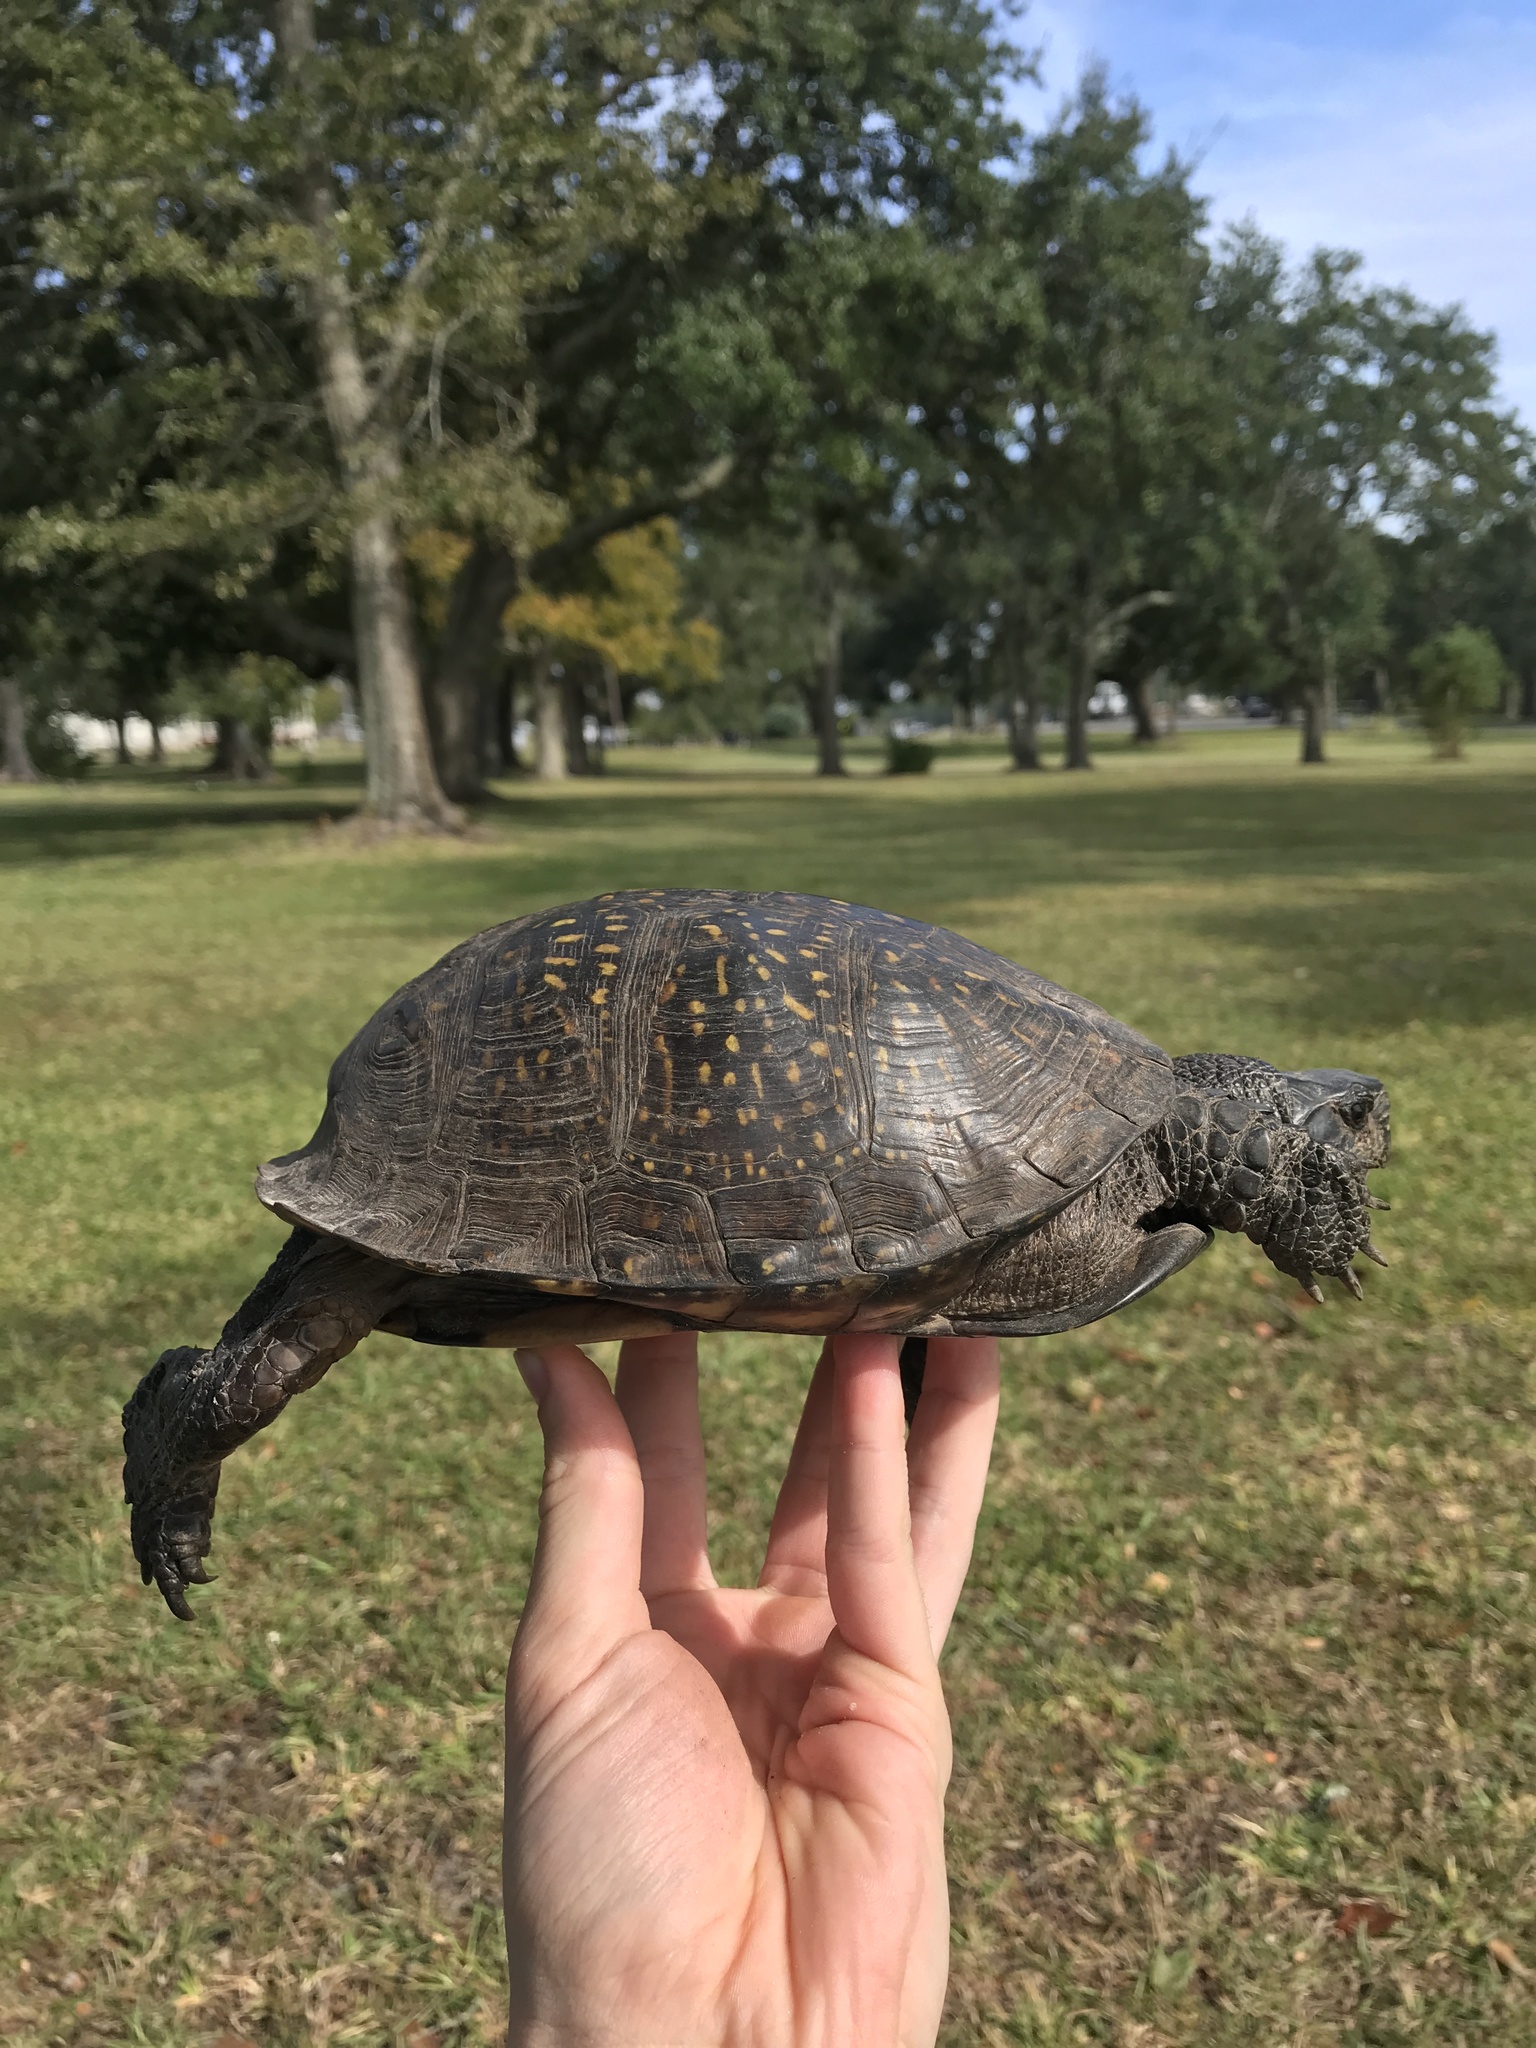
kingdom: Animalia
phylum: Chordata
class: Testudines
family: Emydidae
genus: Terrapene
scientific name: Terrapene carolina
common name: Common box turtle
